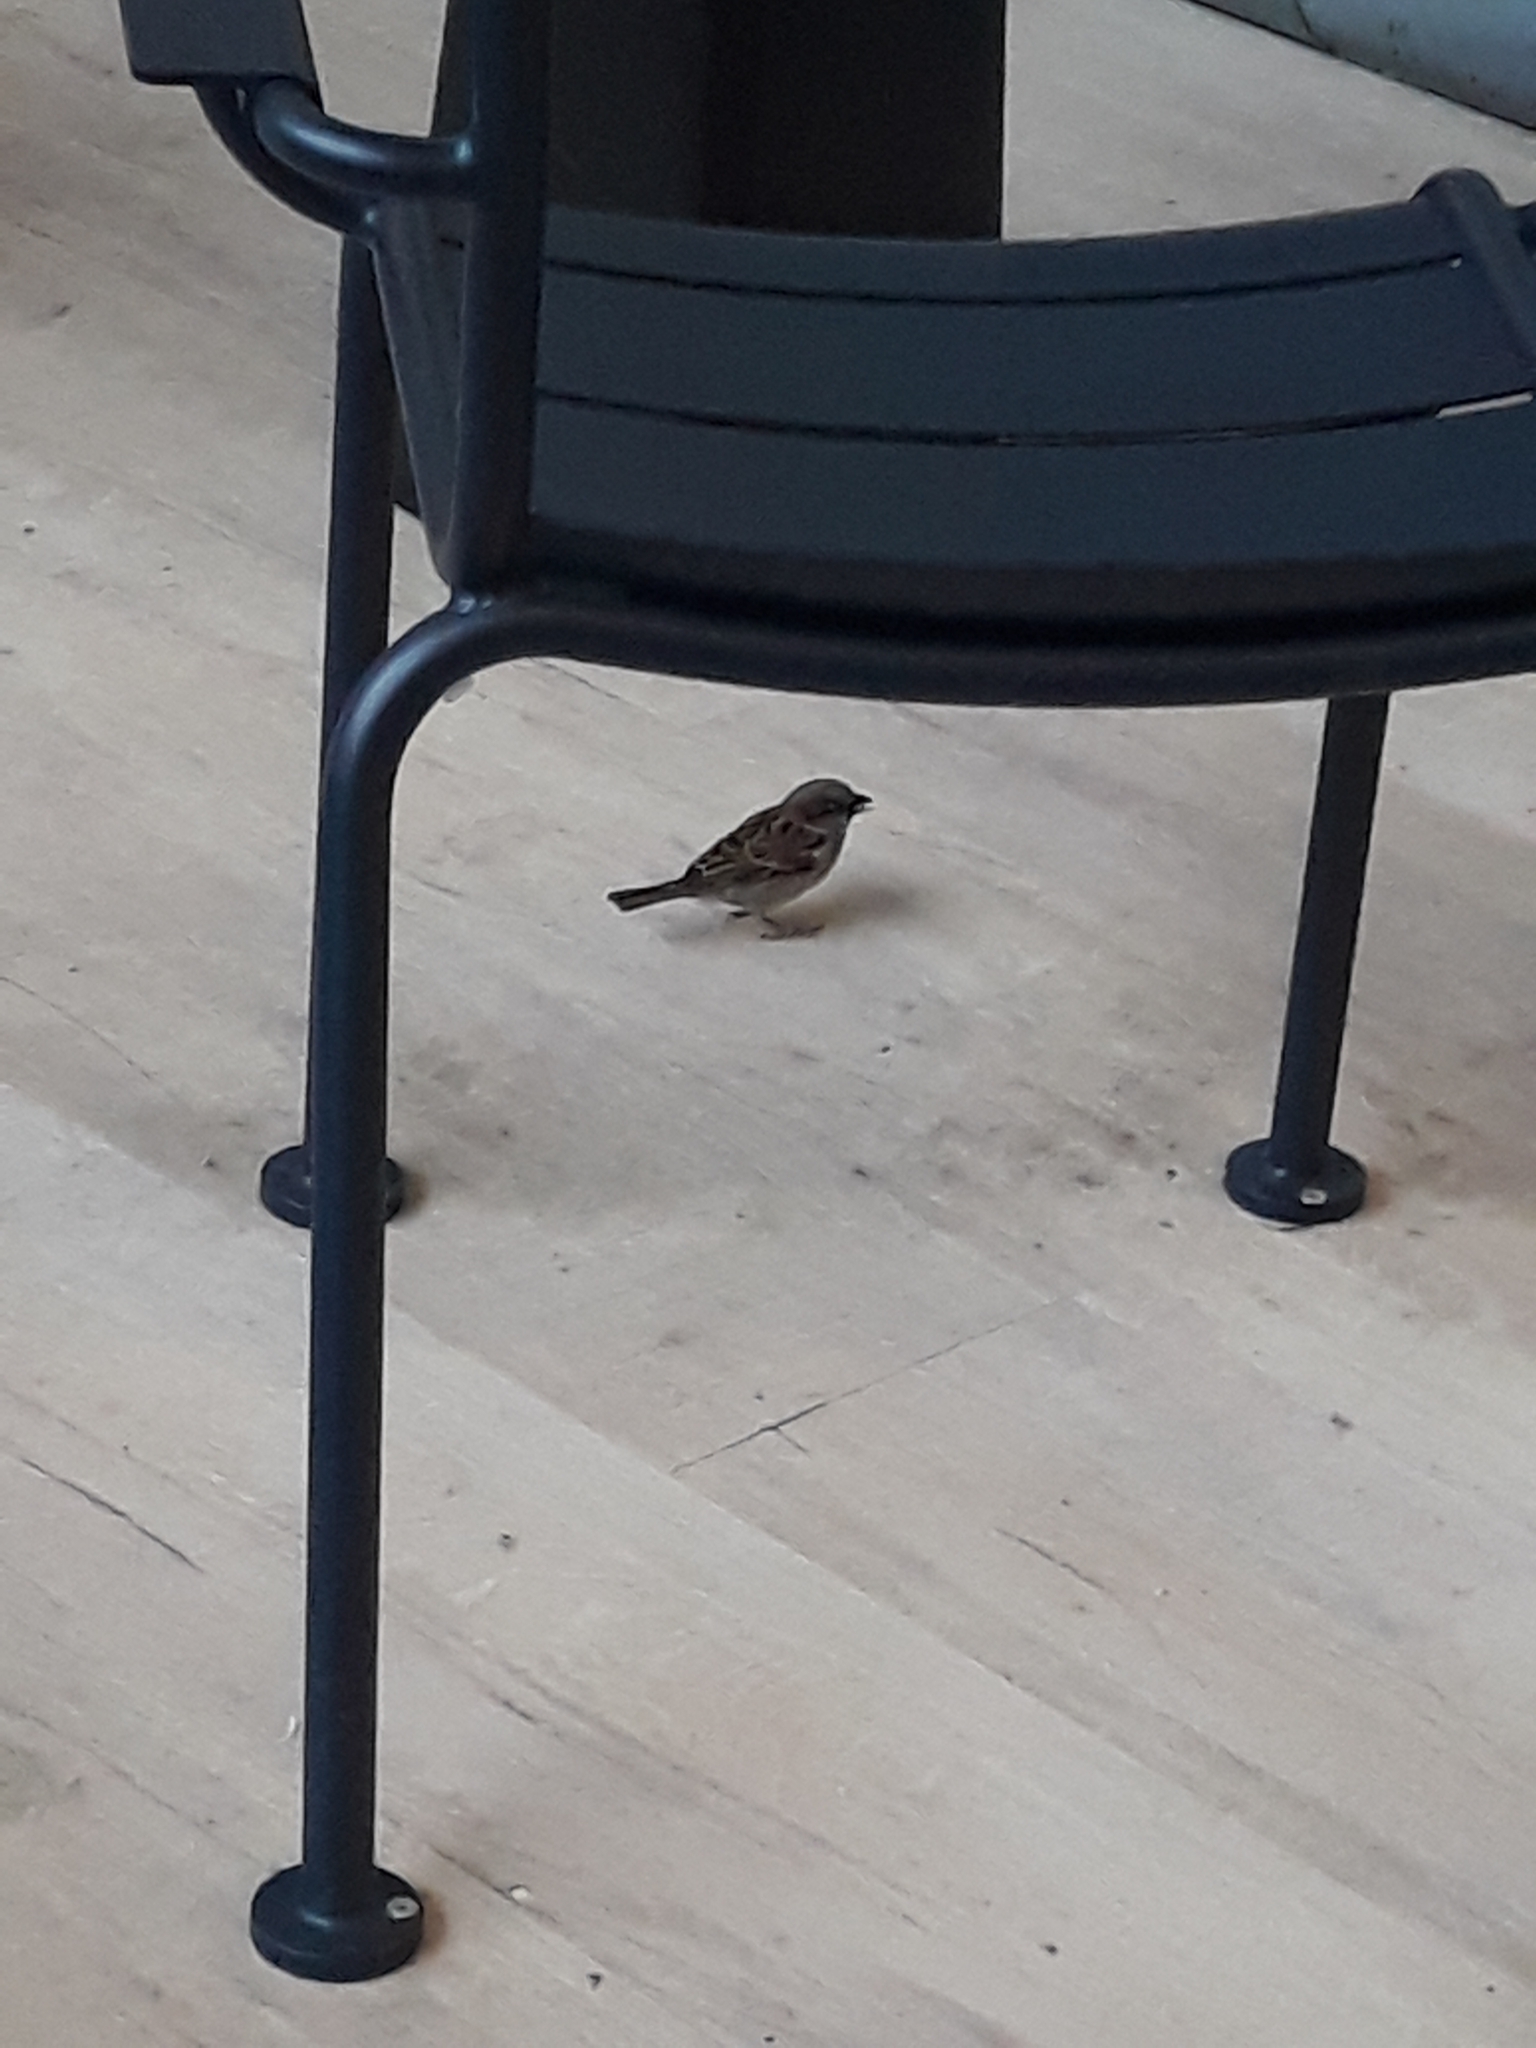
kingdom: Animalia
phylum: Chordata
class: Aves
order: Passeriformes
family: Passeridae
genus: Passer
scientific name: Passer domesticus
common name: House sparrow
